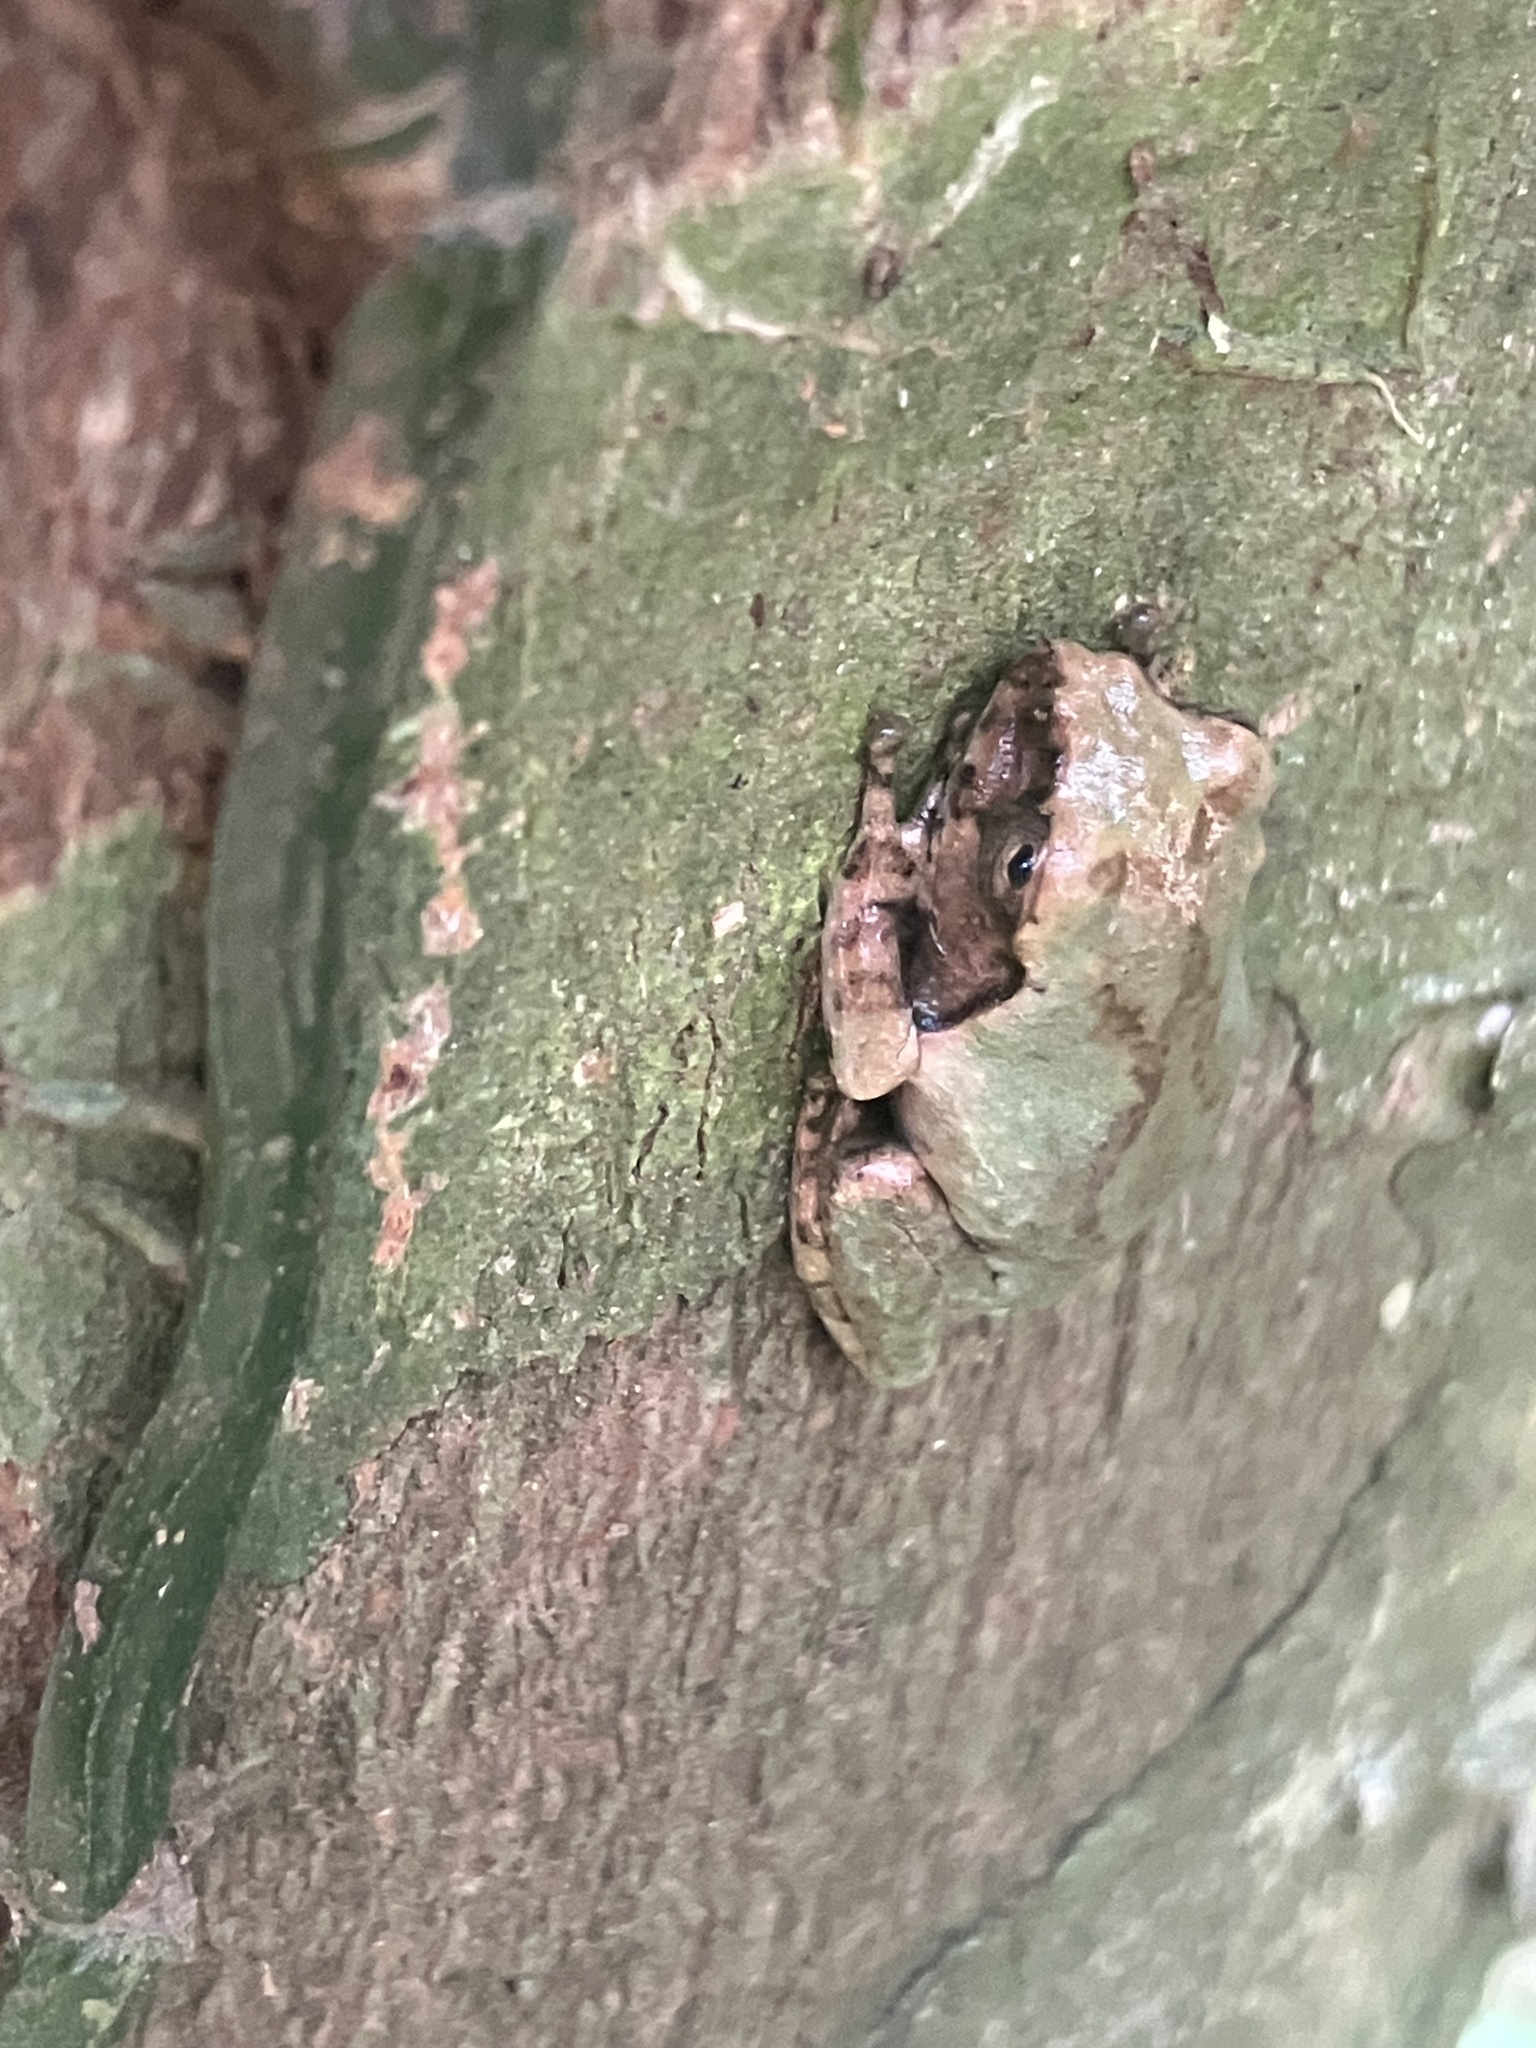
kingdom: Animalia
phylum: Chordata
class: Amphibia
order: Anura
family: Rhacophoridae
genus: Kurixalus
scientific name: Kurixalus wangi
